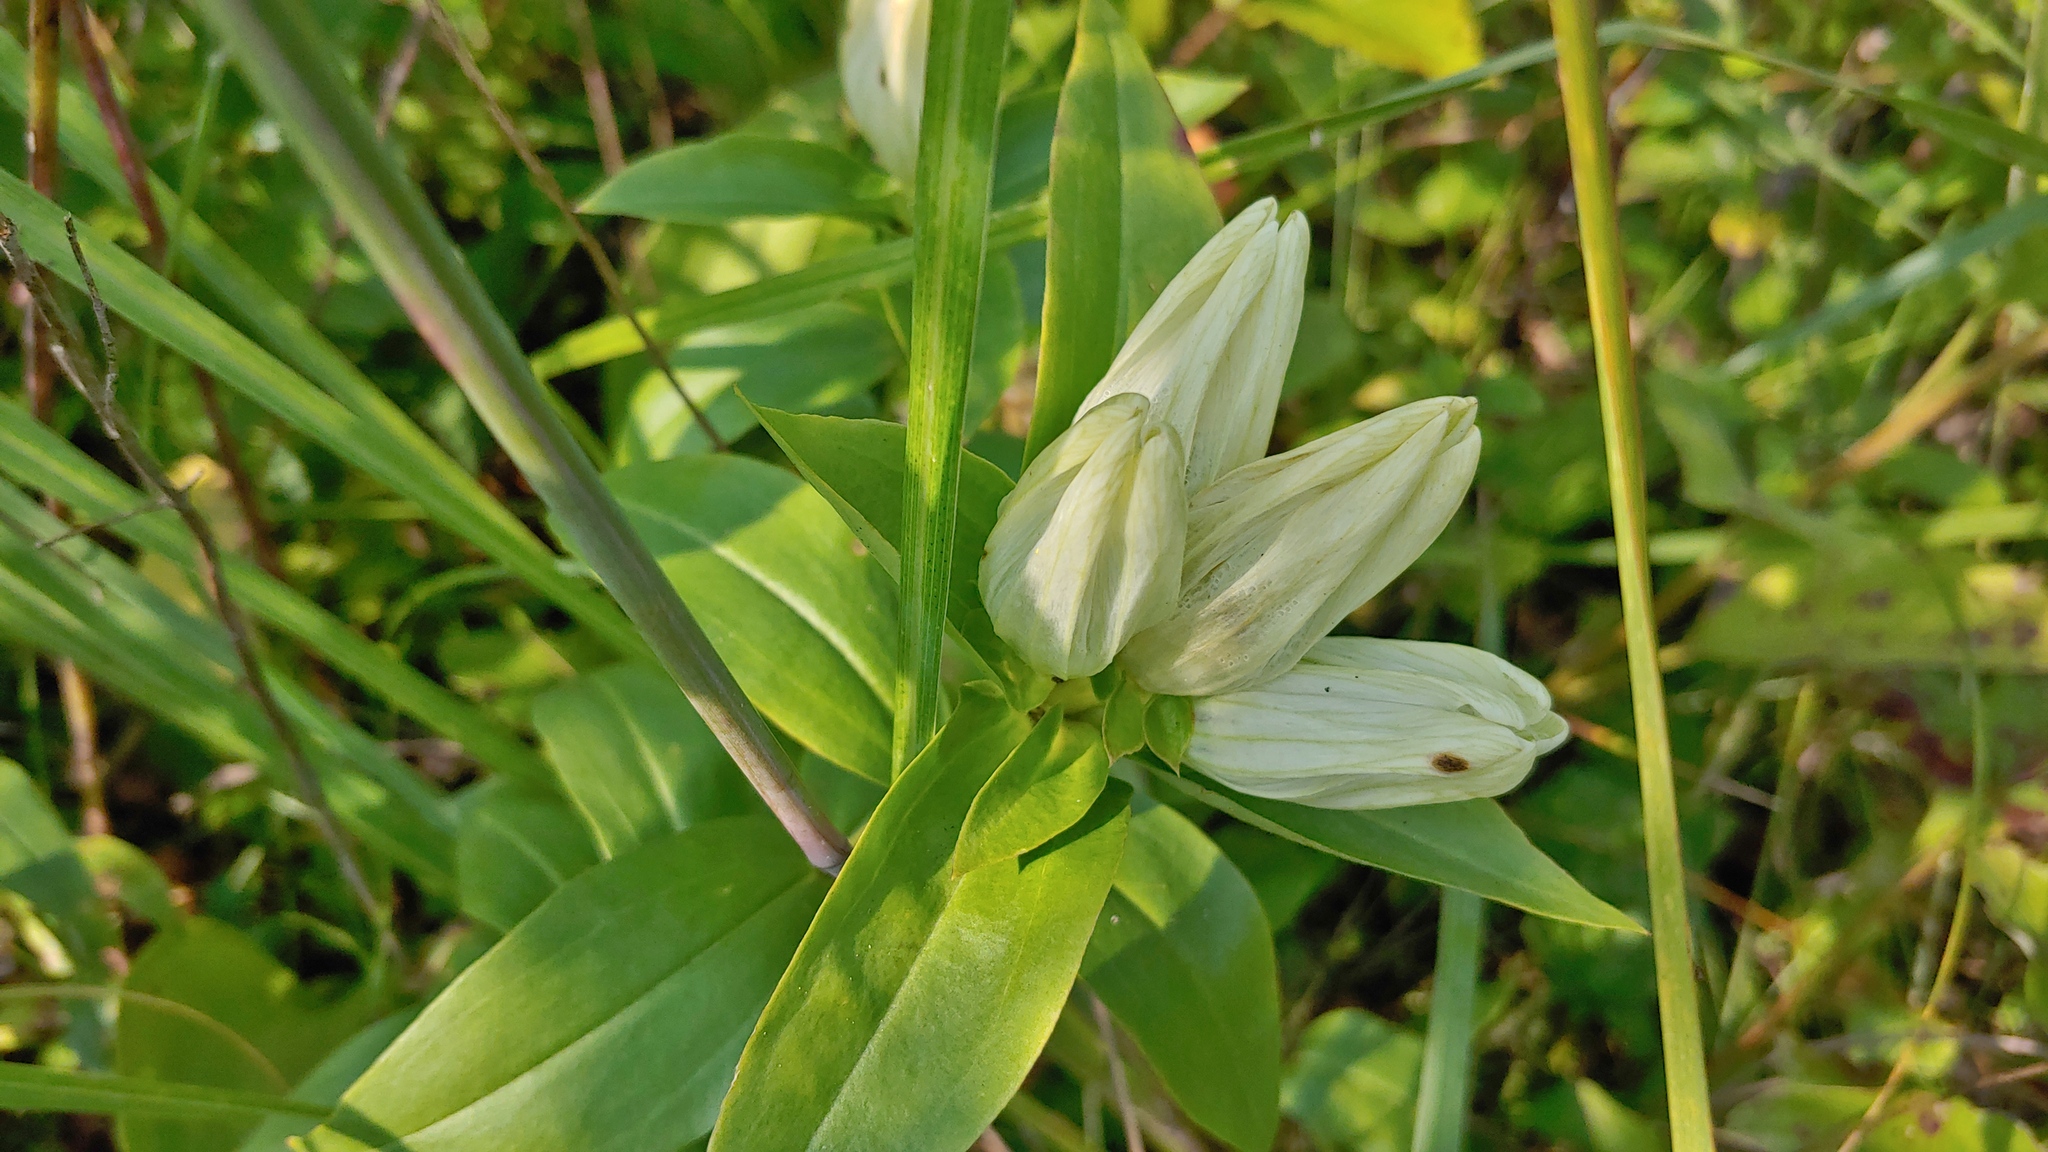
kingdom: Plantae
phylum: Tracheophyta
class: Magnoliopsida
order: Gentianales
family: Gentianaceae
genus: Gentiana
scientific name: Gentiana alba
